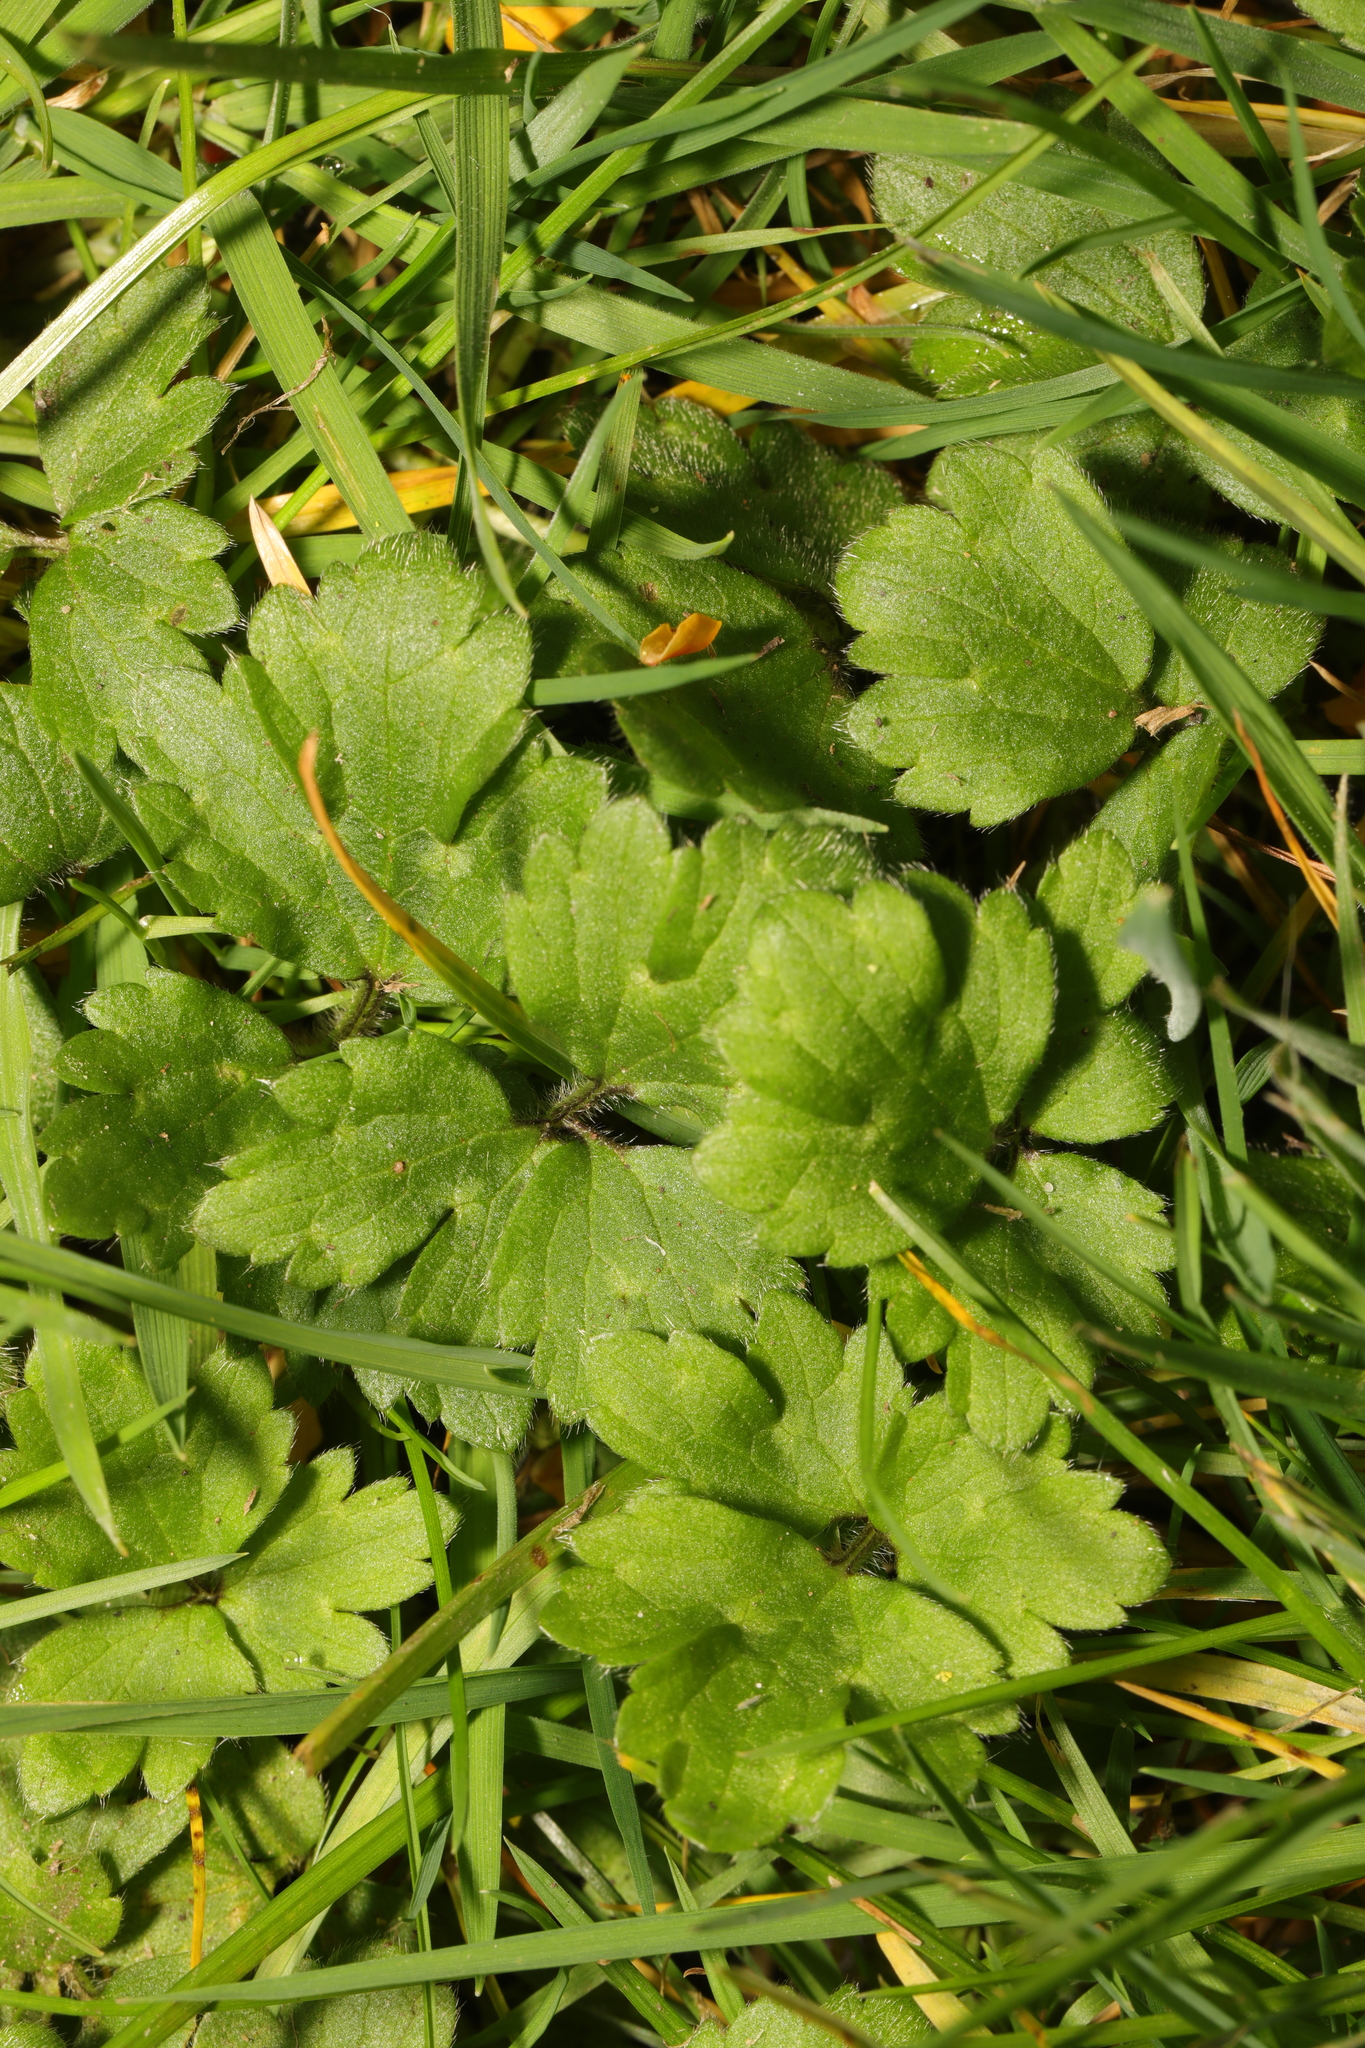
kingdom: Plantae
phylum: Tracheophyta
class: Magnoliopsida
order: Ranunculales
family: Ranunculaceae
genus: Ranunculus
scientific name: Ranunculus repens
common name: Creeping buttercup
